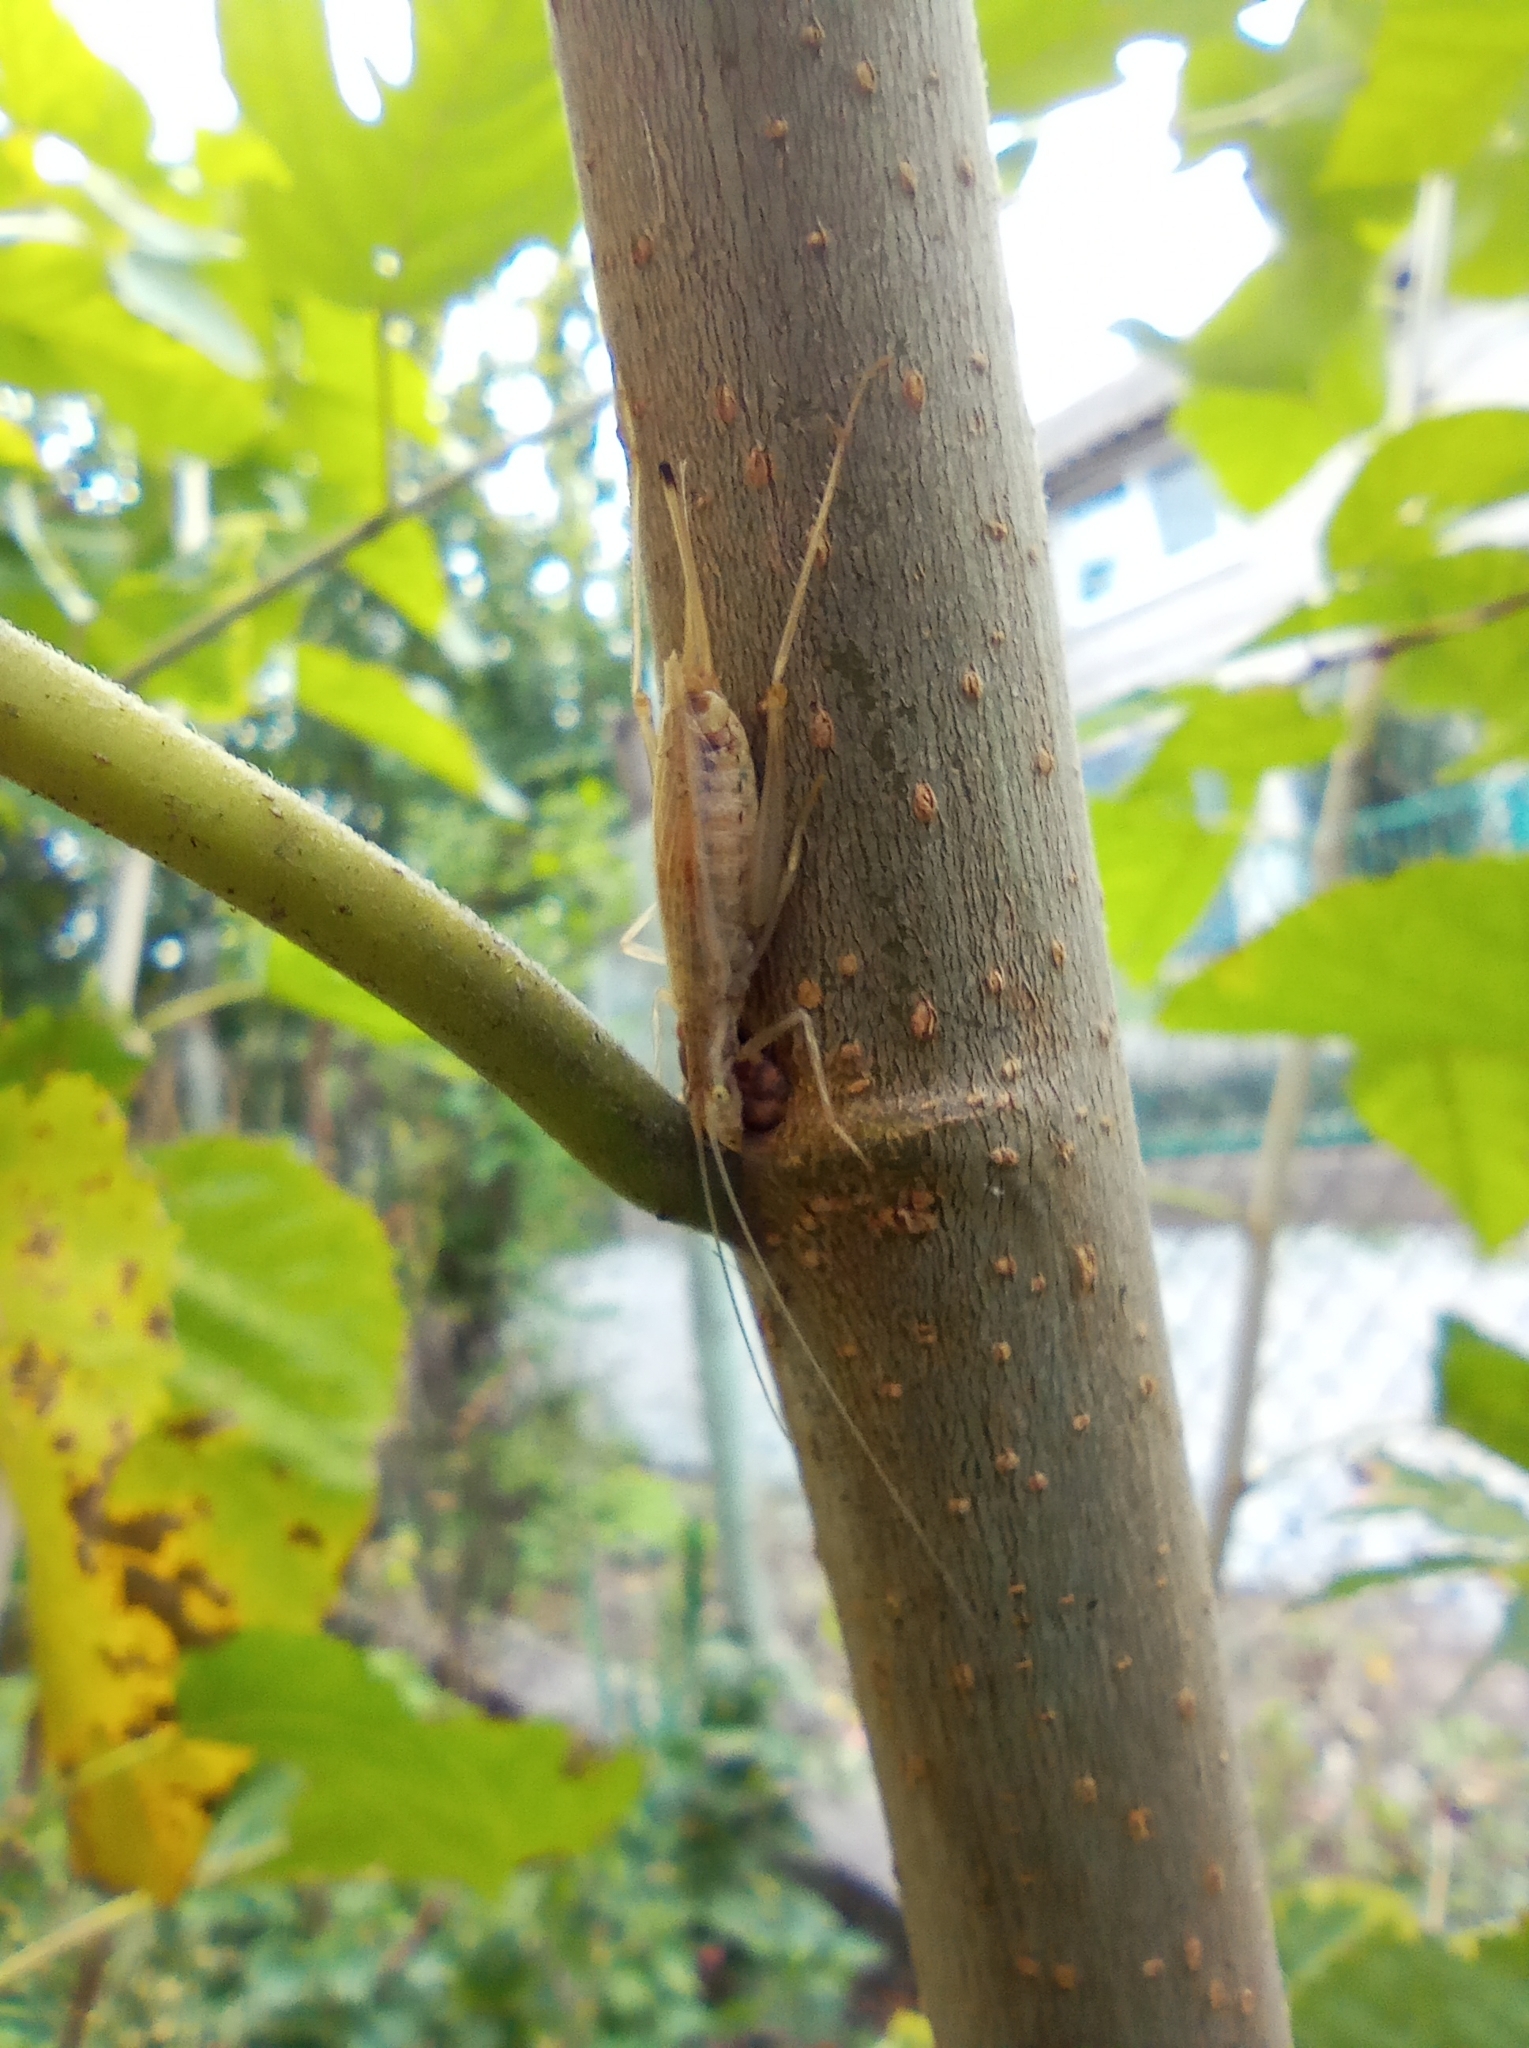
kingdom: Animalia
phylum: Arthropoda
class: Insecta
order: Orthoptera
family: Gryllidae
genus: Oecanthus
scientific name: Oecanthus pellucens
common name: Tree-cricket
